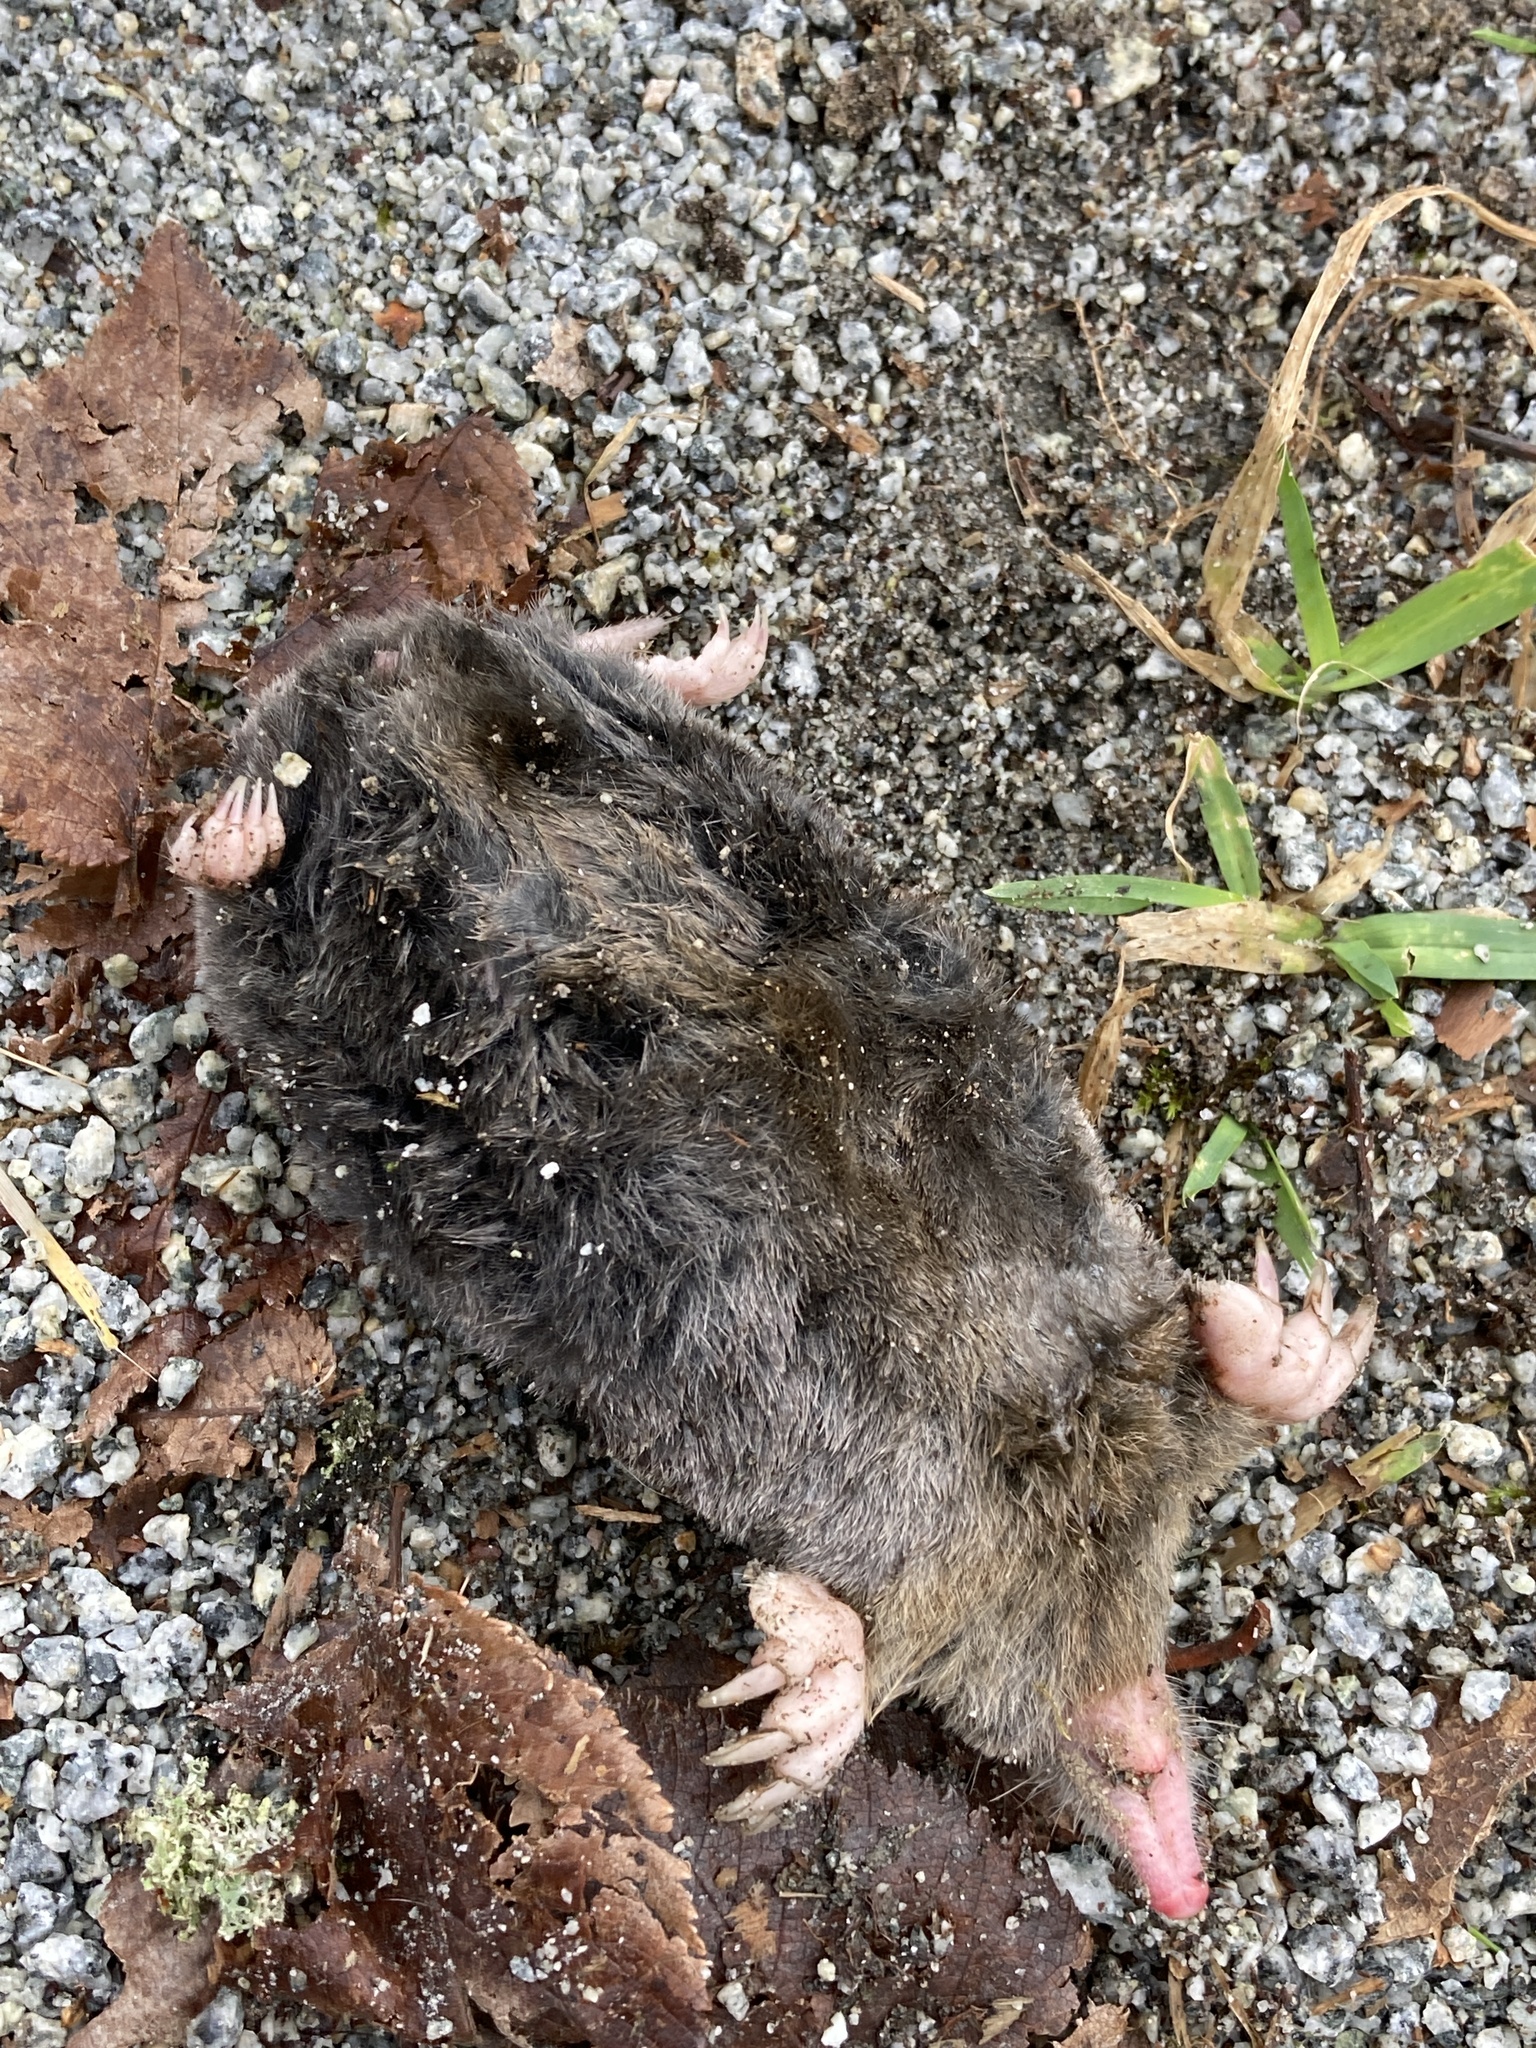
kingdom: Animalia
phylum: Chordata
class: Mammalia
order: Soricomorpha
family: Talpidae
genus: Scapanus
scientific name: Scapanus orarius
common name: Coast mole
